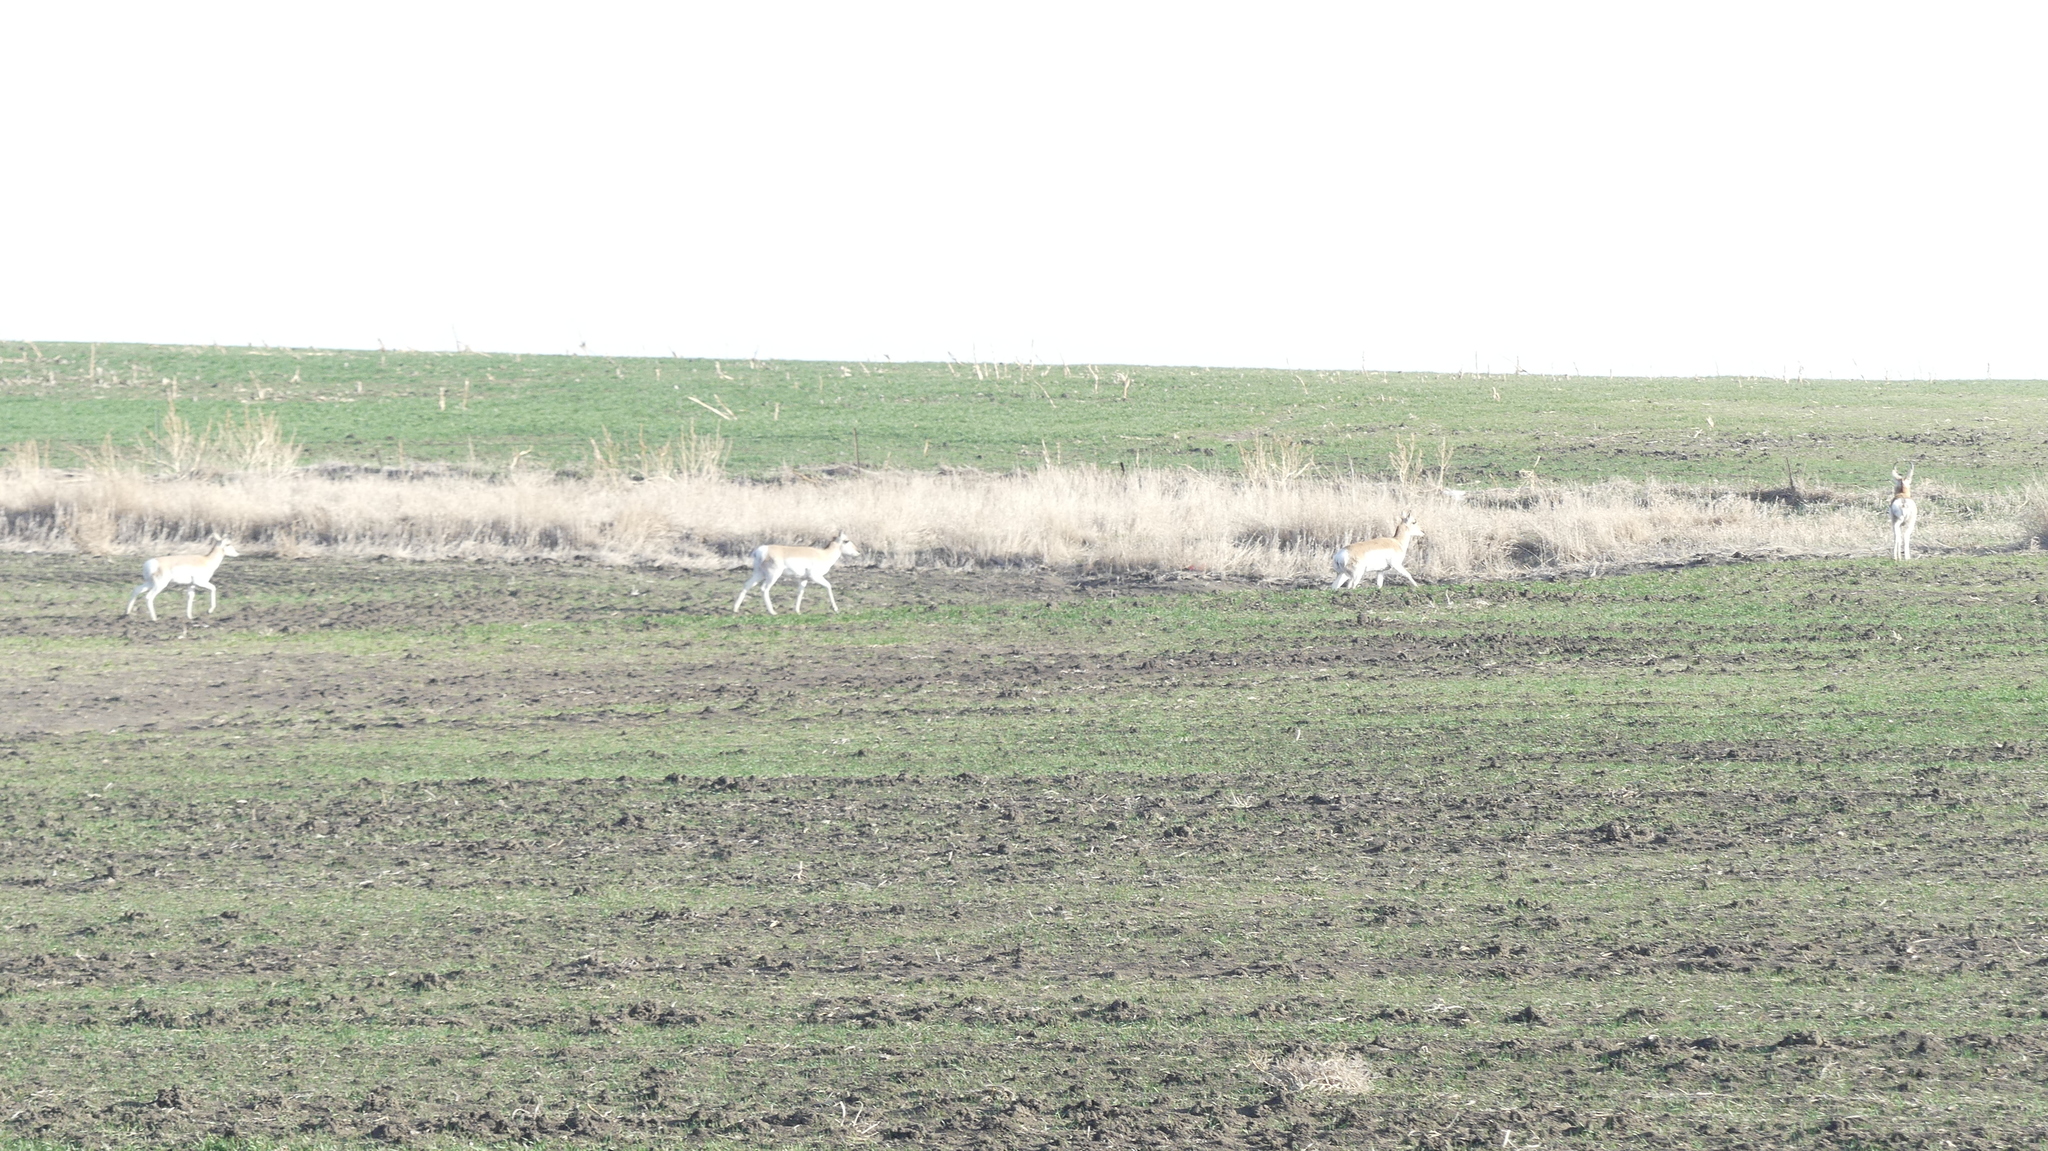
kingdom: Animalia
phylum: Chordata
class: Mammalia
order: Artiodactyla
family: Antilocapridae
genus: Antilocapra
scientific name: Antilocapra americana
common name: Pronghorn
